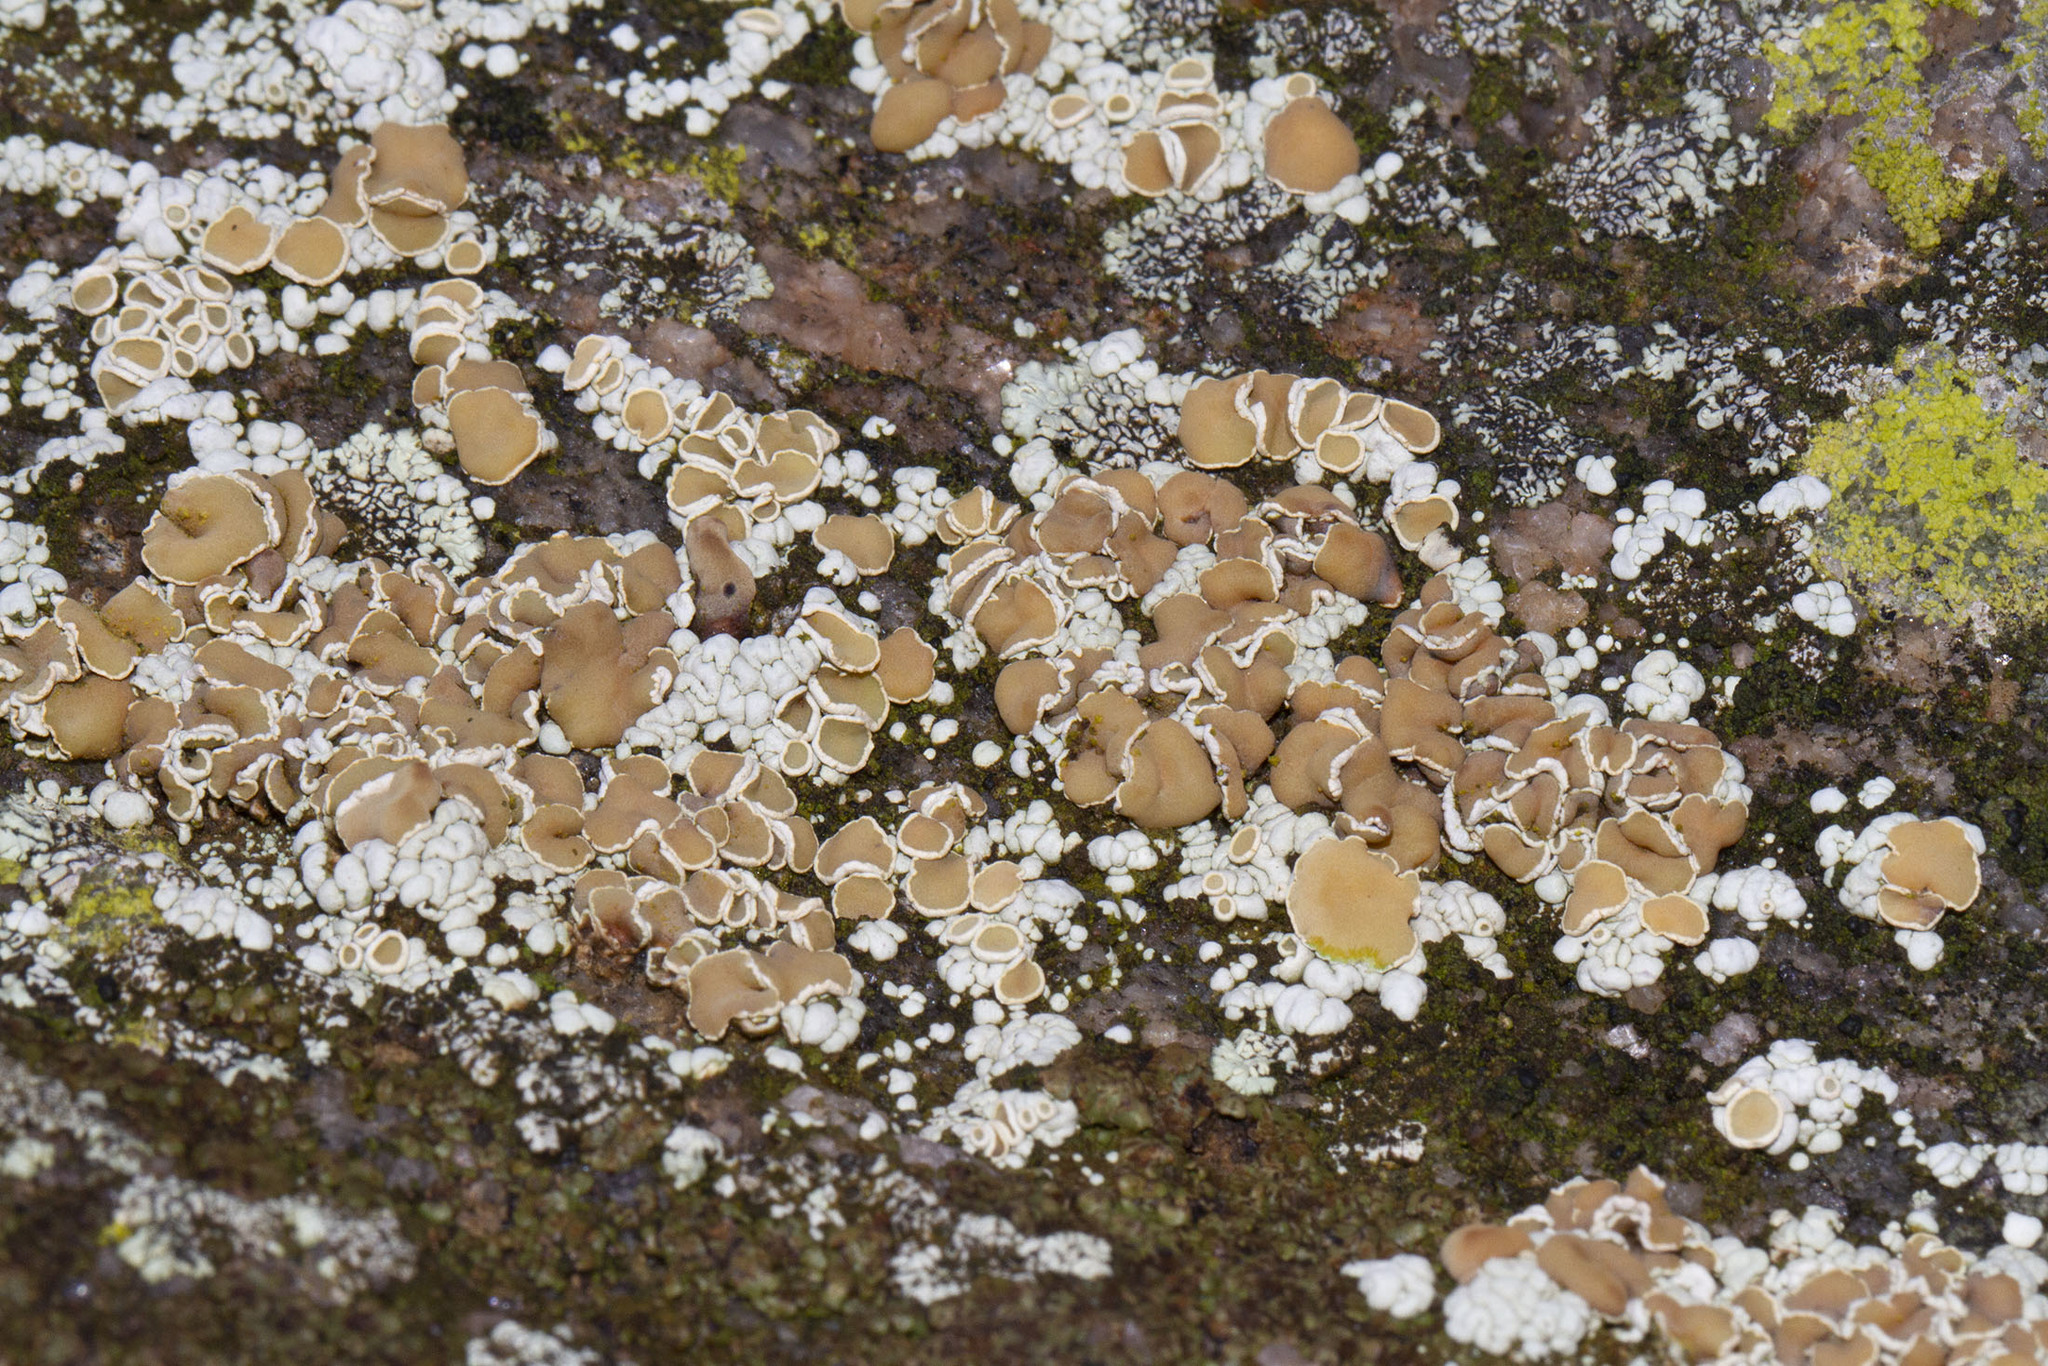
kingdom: Fungi
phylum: Ascomycota
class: Lecanoromycetes
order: Lecanorales
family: Lecanoraceae
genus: Sedelnikovaea
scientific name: Sedelnikovaea subdiscrepans
